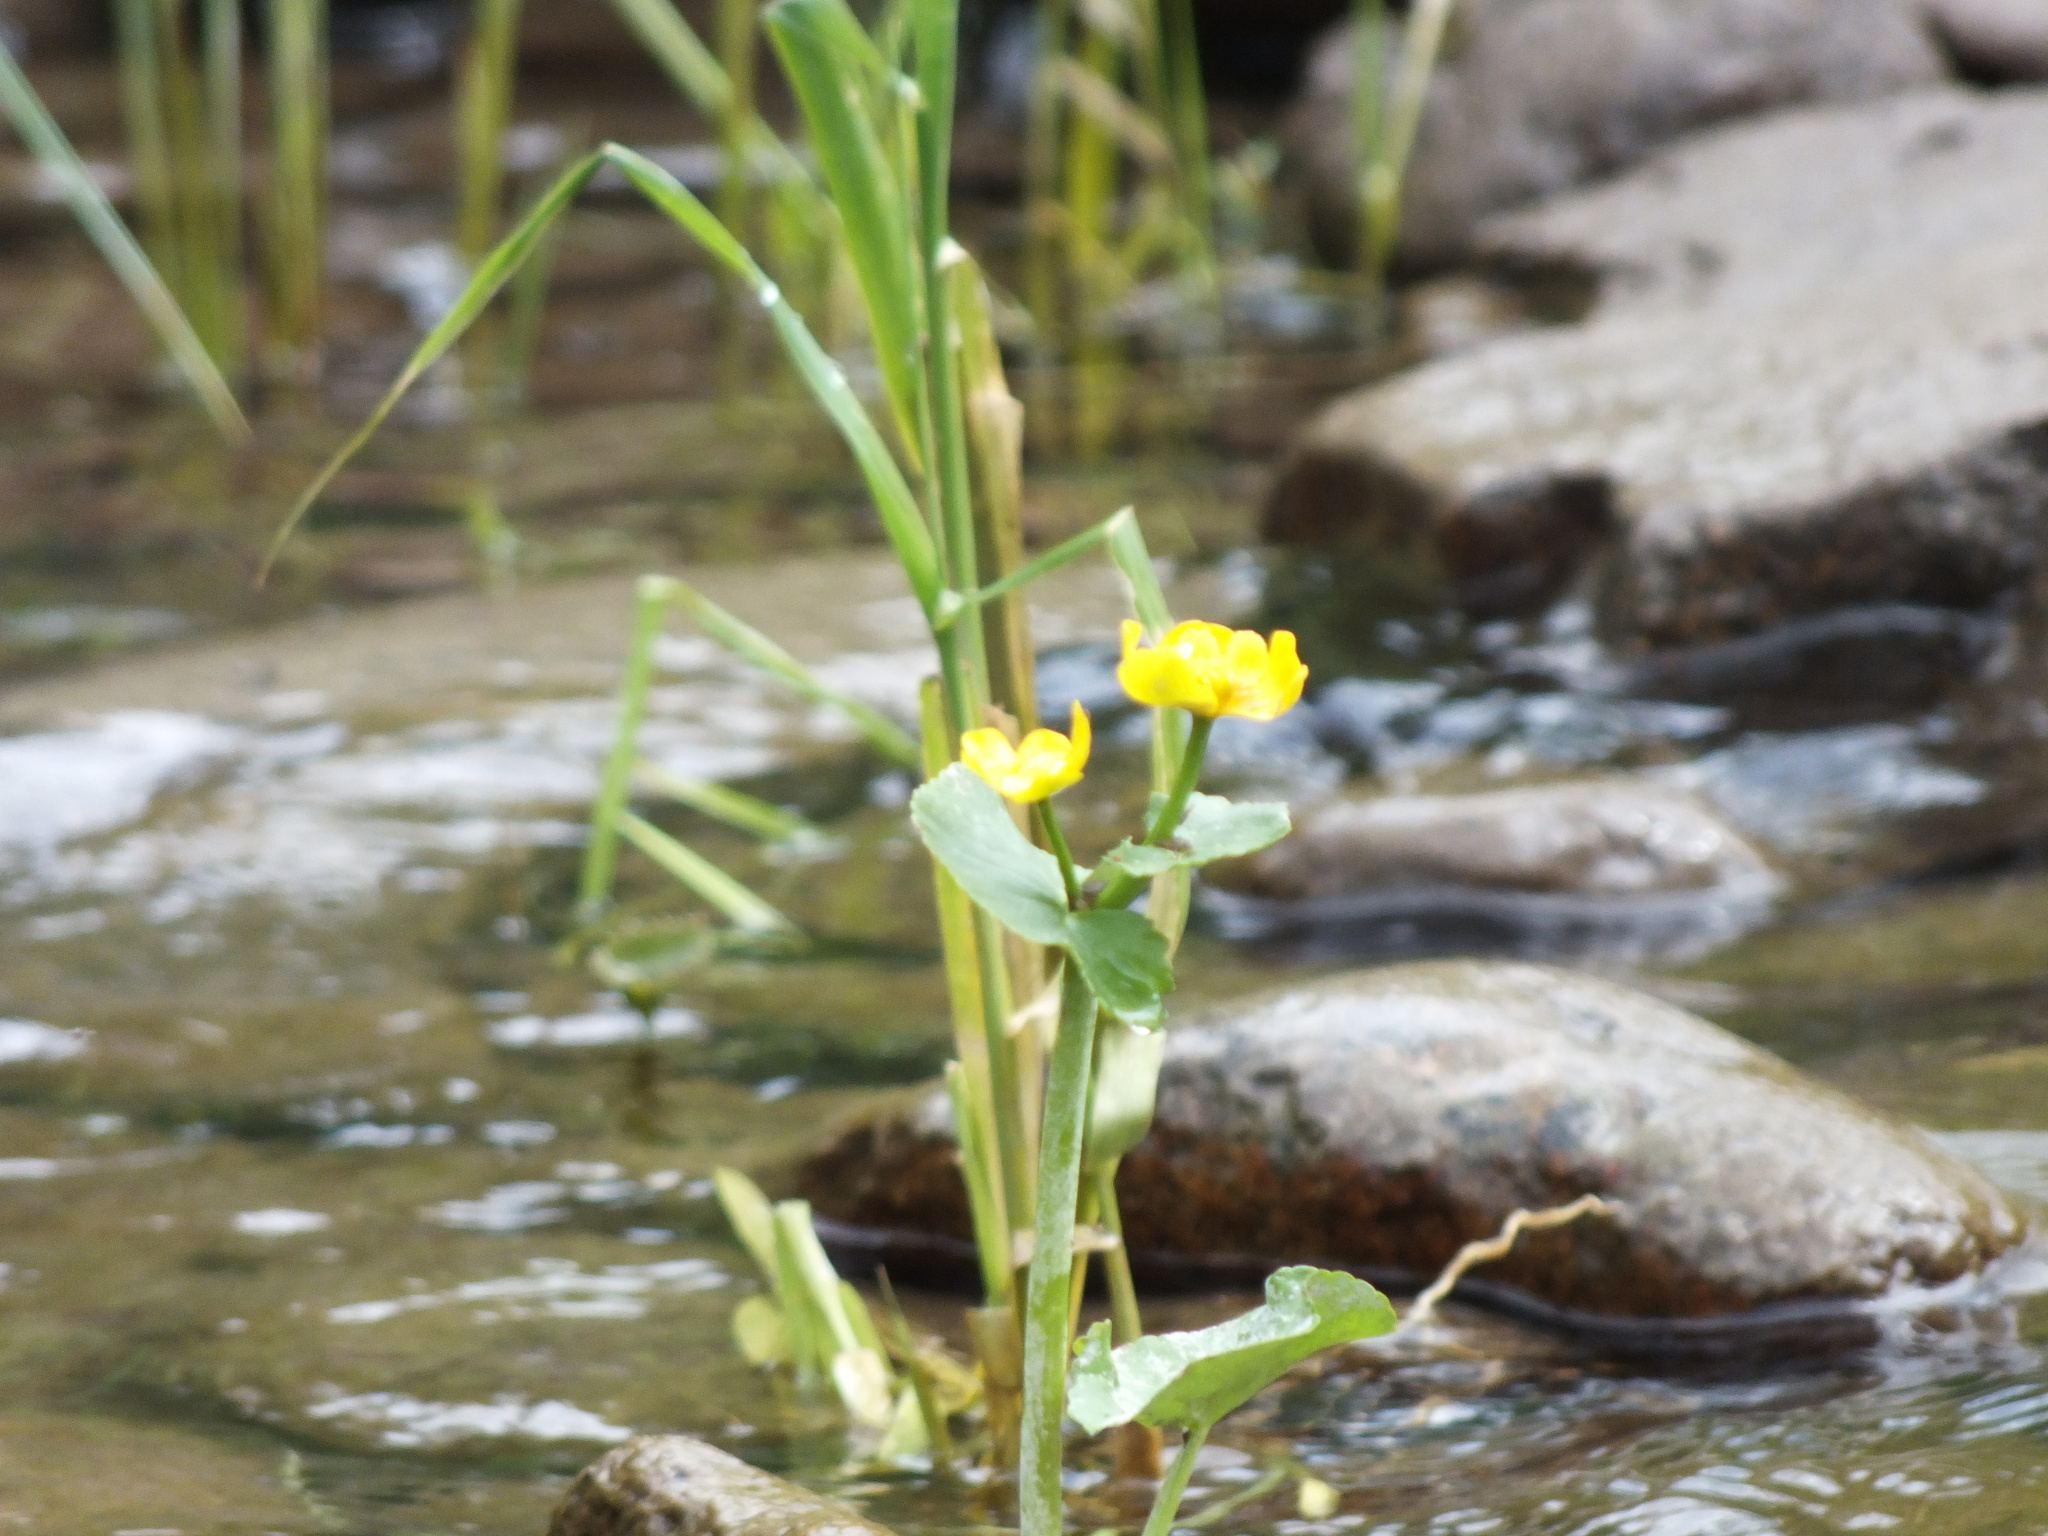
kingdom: Plantae
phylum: Tracheophyta
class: Magnoliopsida
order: Ranunculales
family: Ranunculaceae
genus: Caltha
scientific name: Caltha palustris
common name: Marsh marigold
